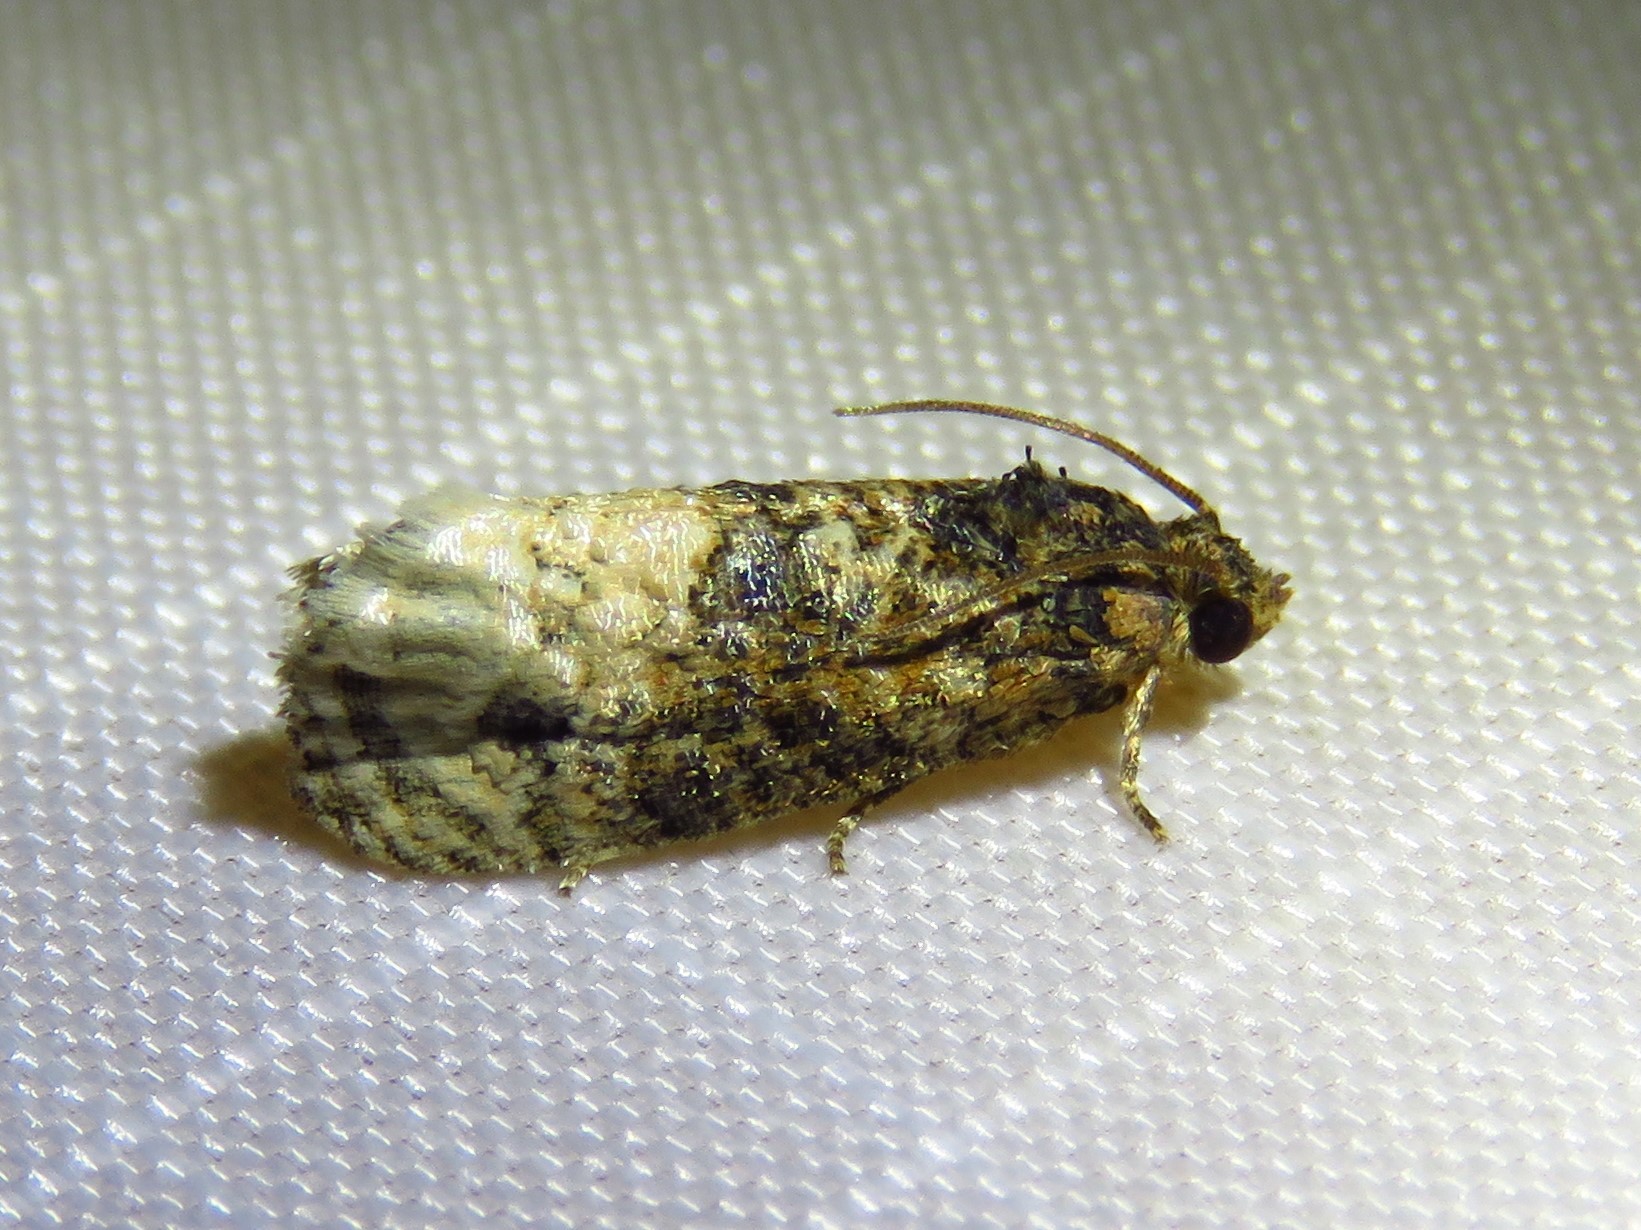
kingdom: Animalia
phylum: Arthropoda
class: Insecta
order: Lepidoptera
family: Tortricidae
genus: Ecdytolopha
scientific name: Ecdytolopha mana
